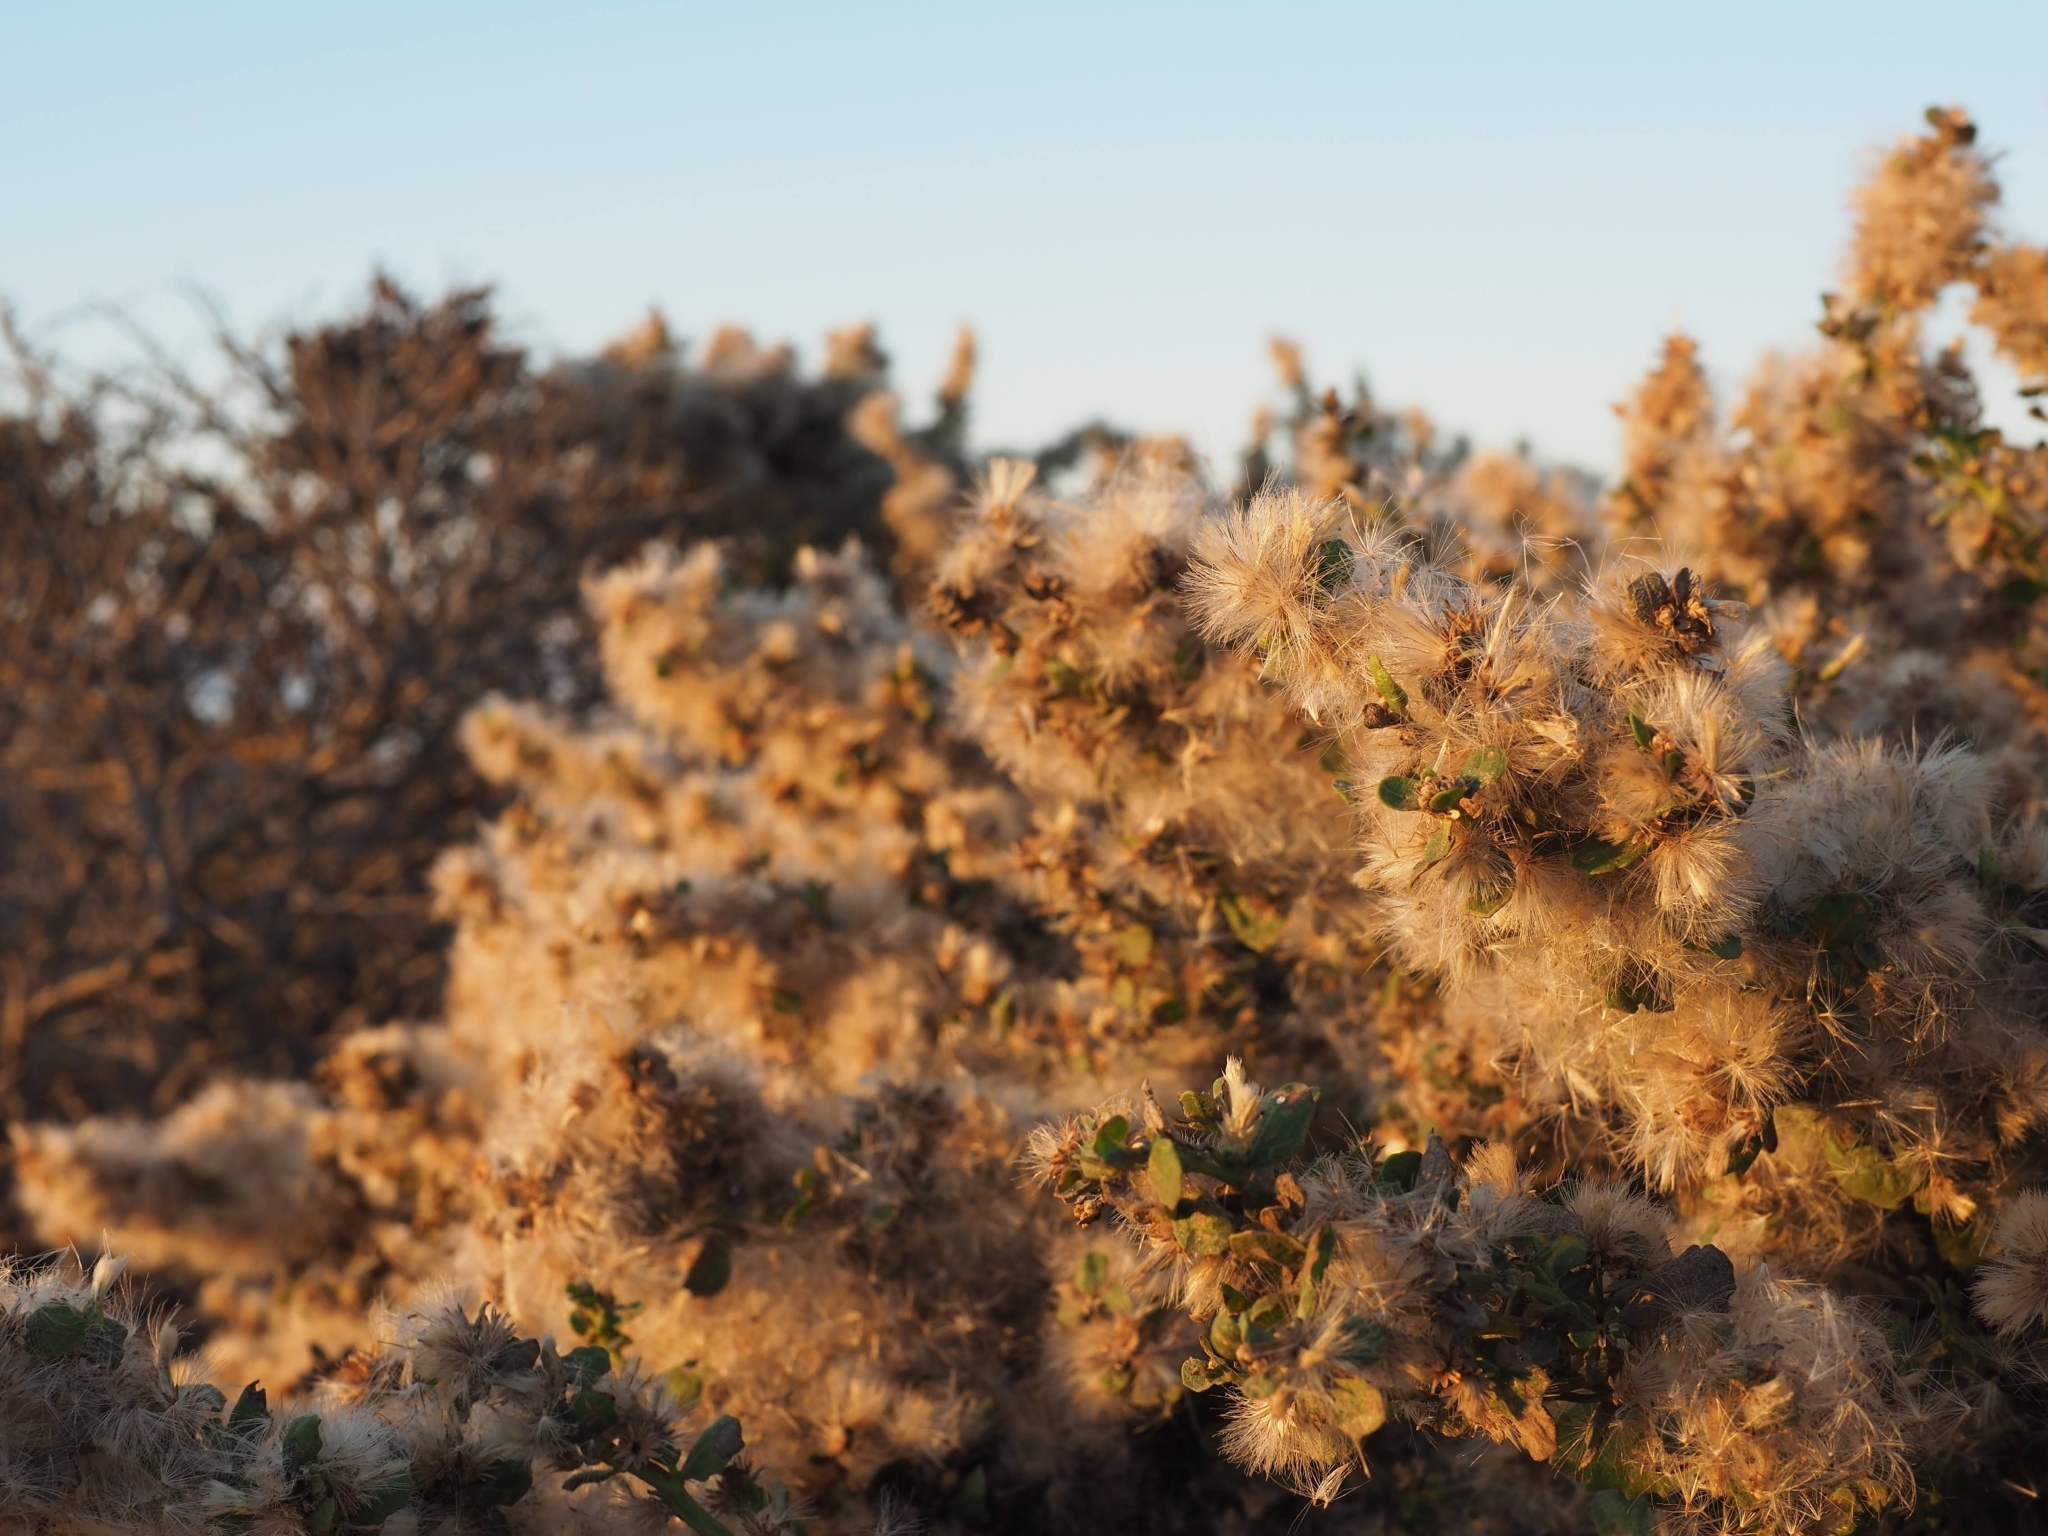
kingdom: Plantae
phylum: Tracheophyta
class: Magnoliopsida
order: Asterales
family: Asteraceae
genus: Baccharis
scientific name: Baccharis pilularis
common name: Coyotebrush
